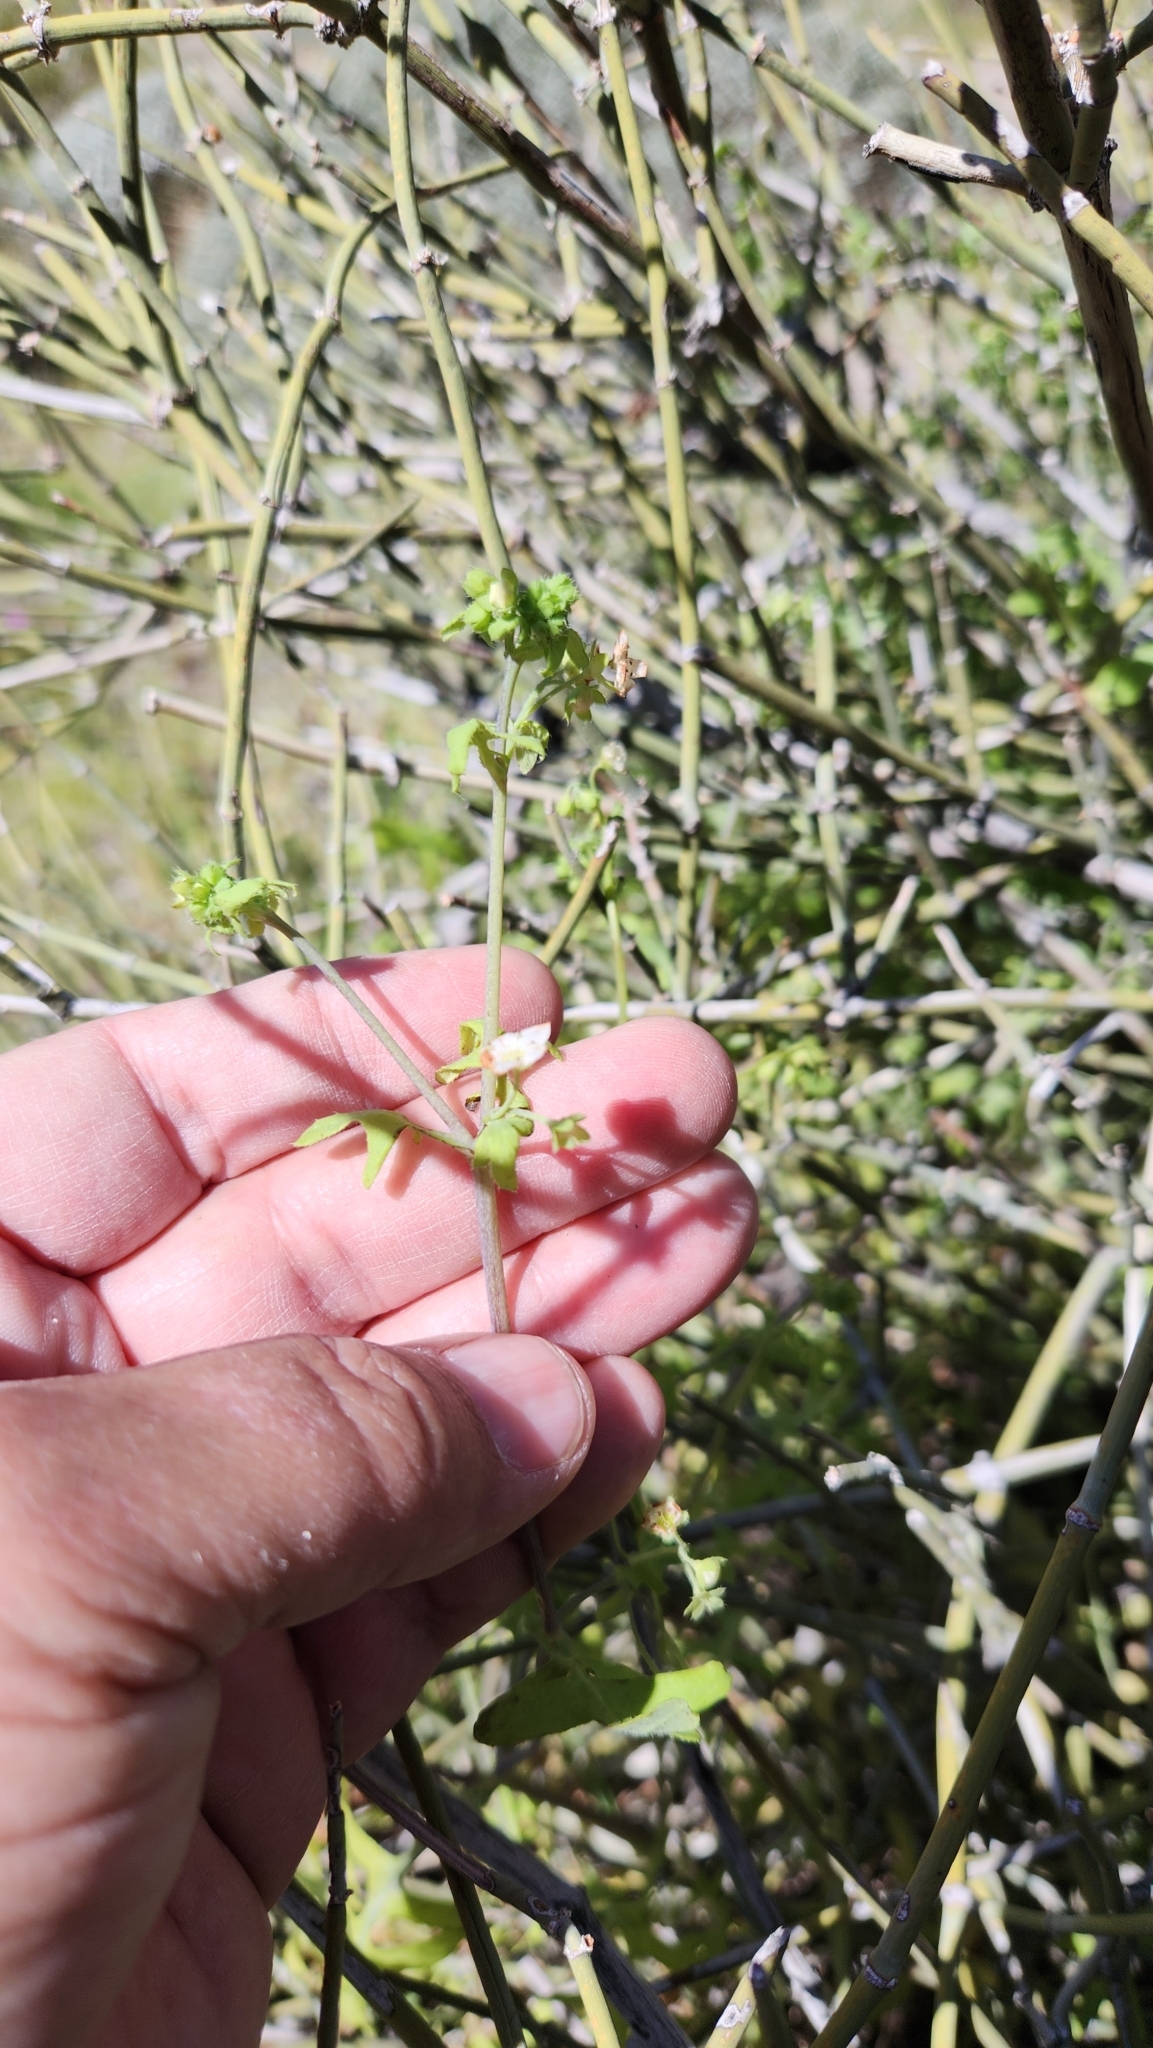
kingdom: Plantae
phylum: Tracheophyta
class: Magnoliopsida
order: Boraginales
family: Hydrophyllaceae
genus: Pholistoma
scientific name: Pholistoma membranaceum
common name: White fiesta-flower
